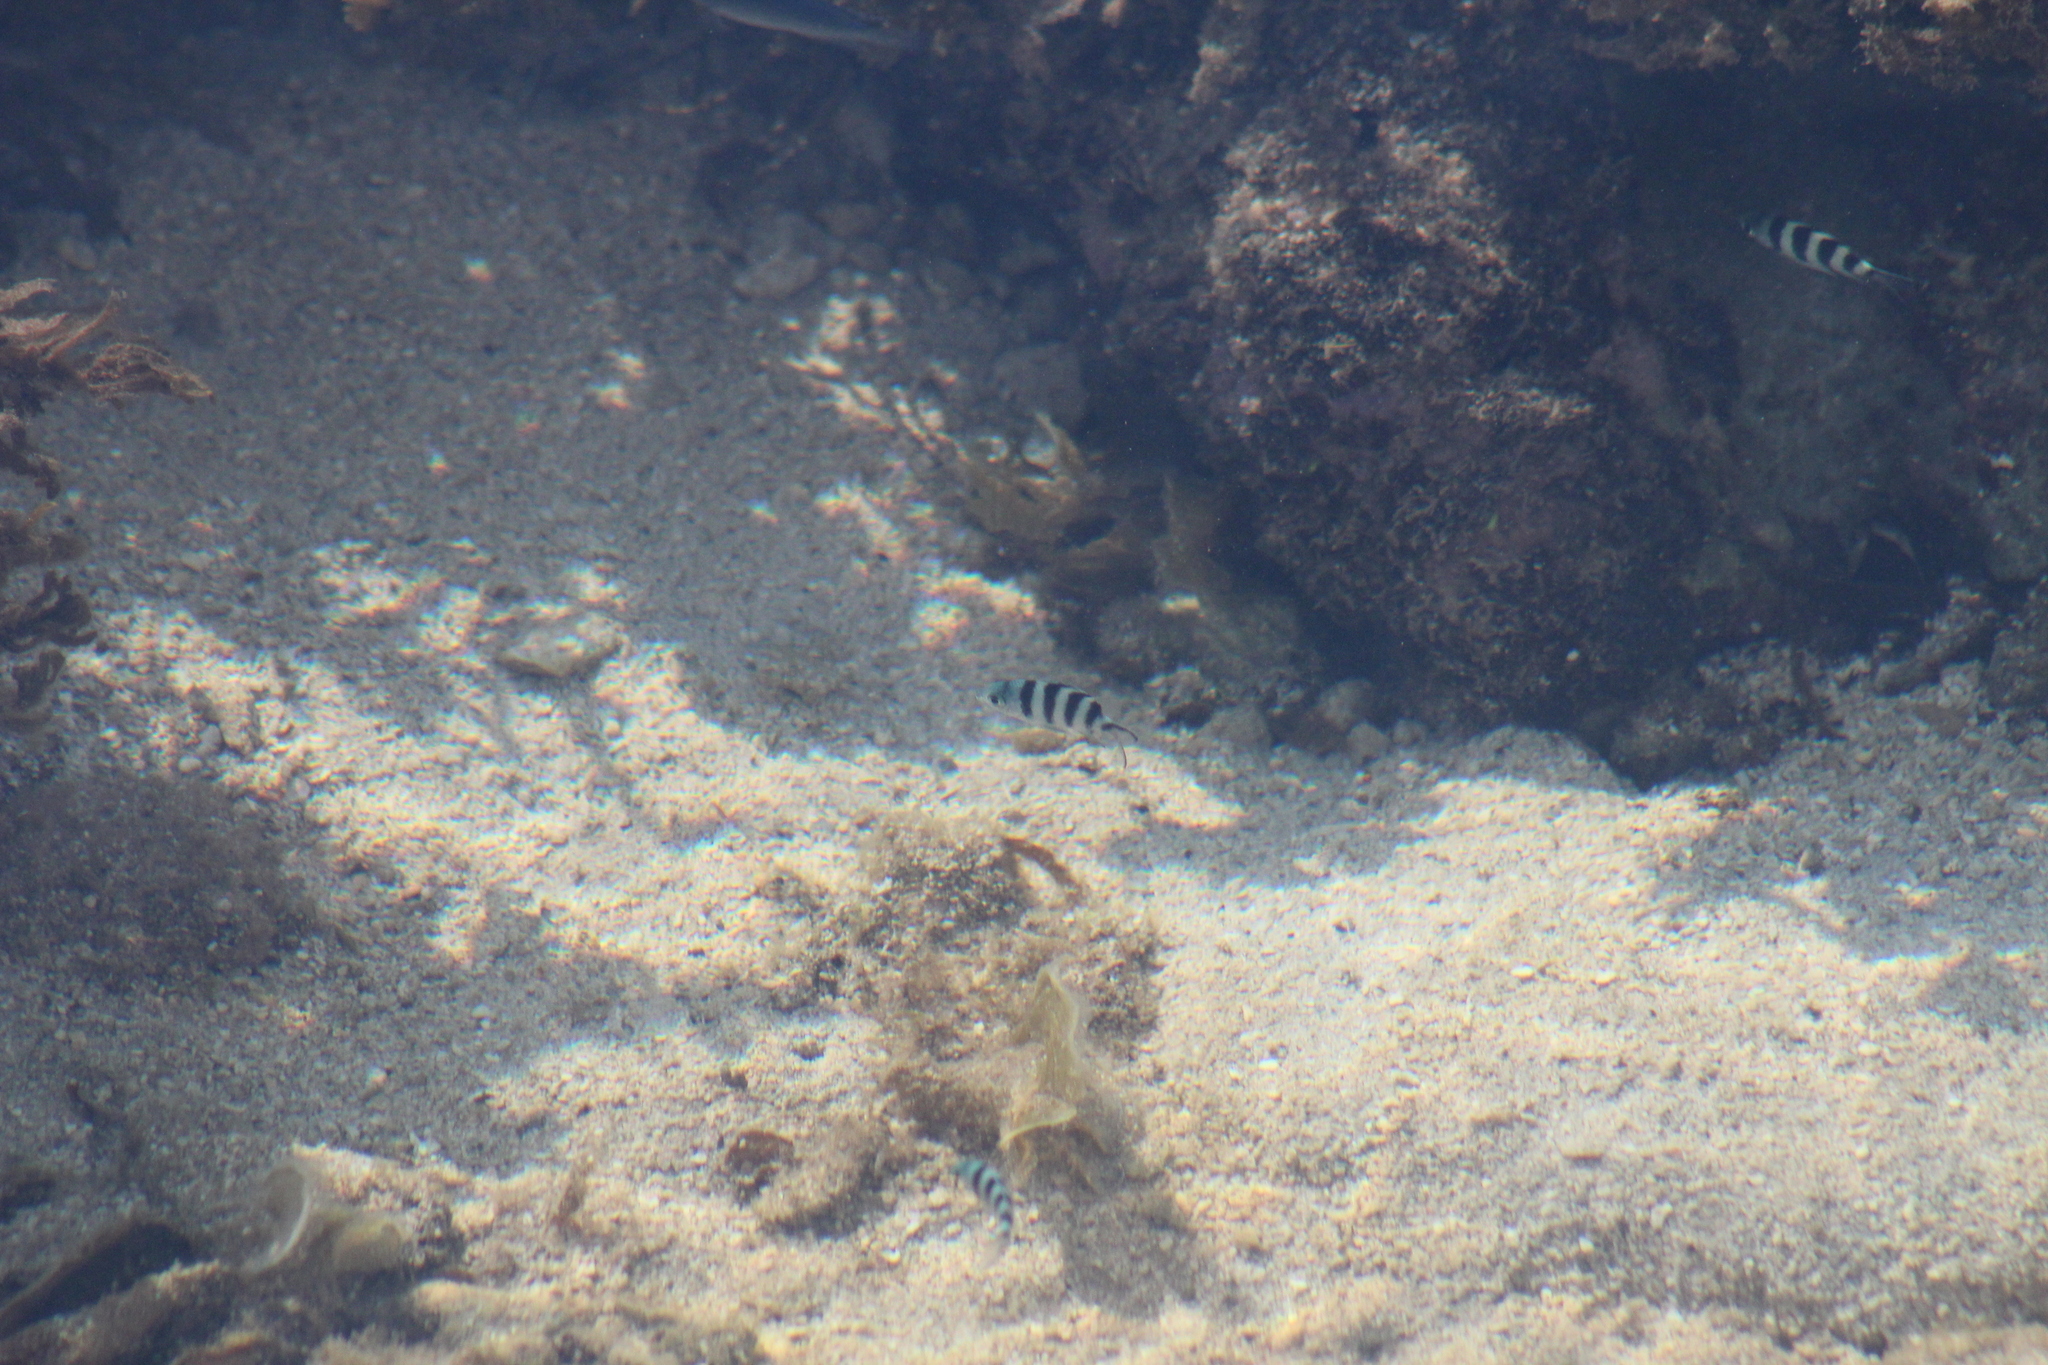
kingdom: Animalia
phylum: Chordata
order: Perciformes
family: Pomacentridae
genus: Abudefduf
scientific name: Abudefduf sexfasciatus
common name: Scissortail sergeant
